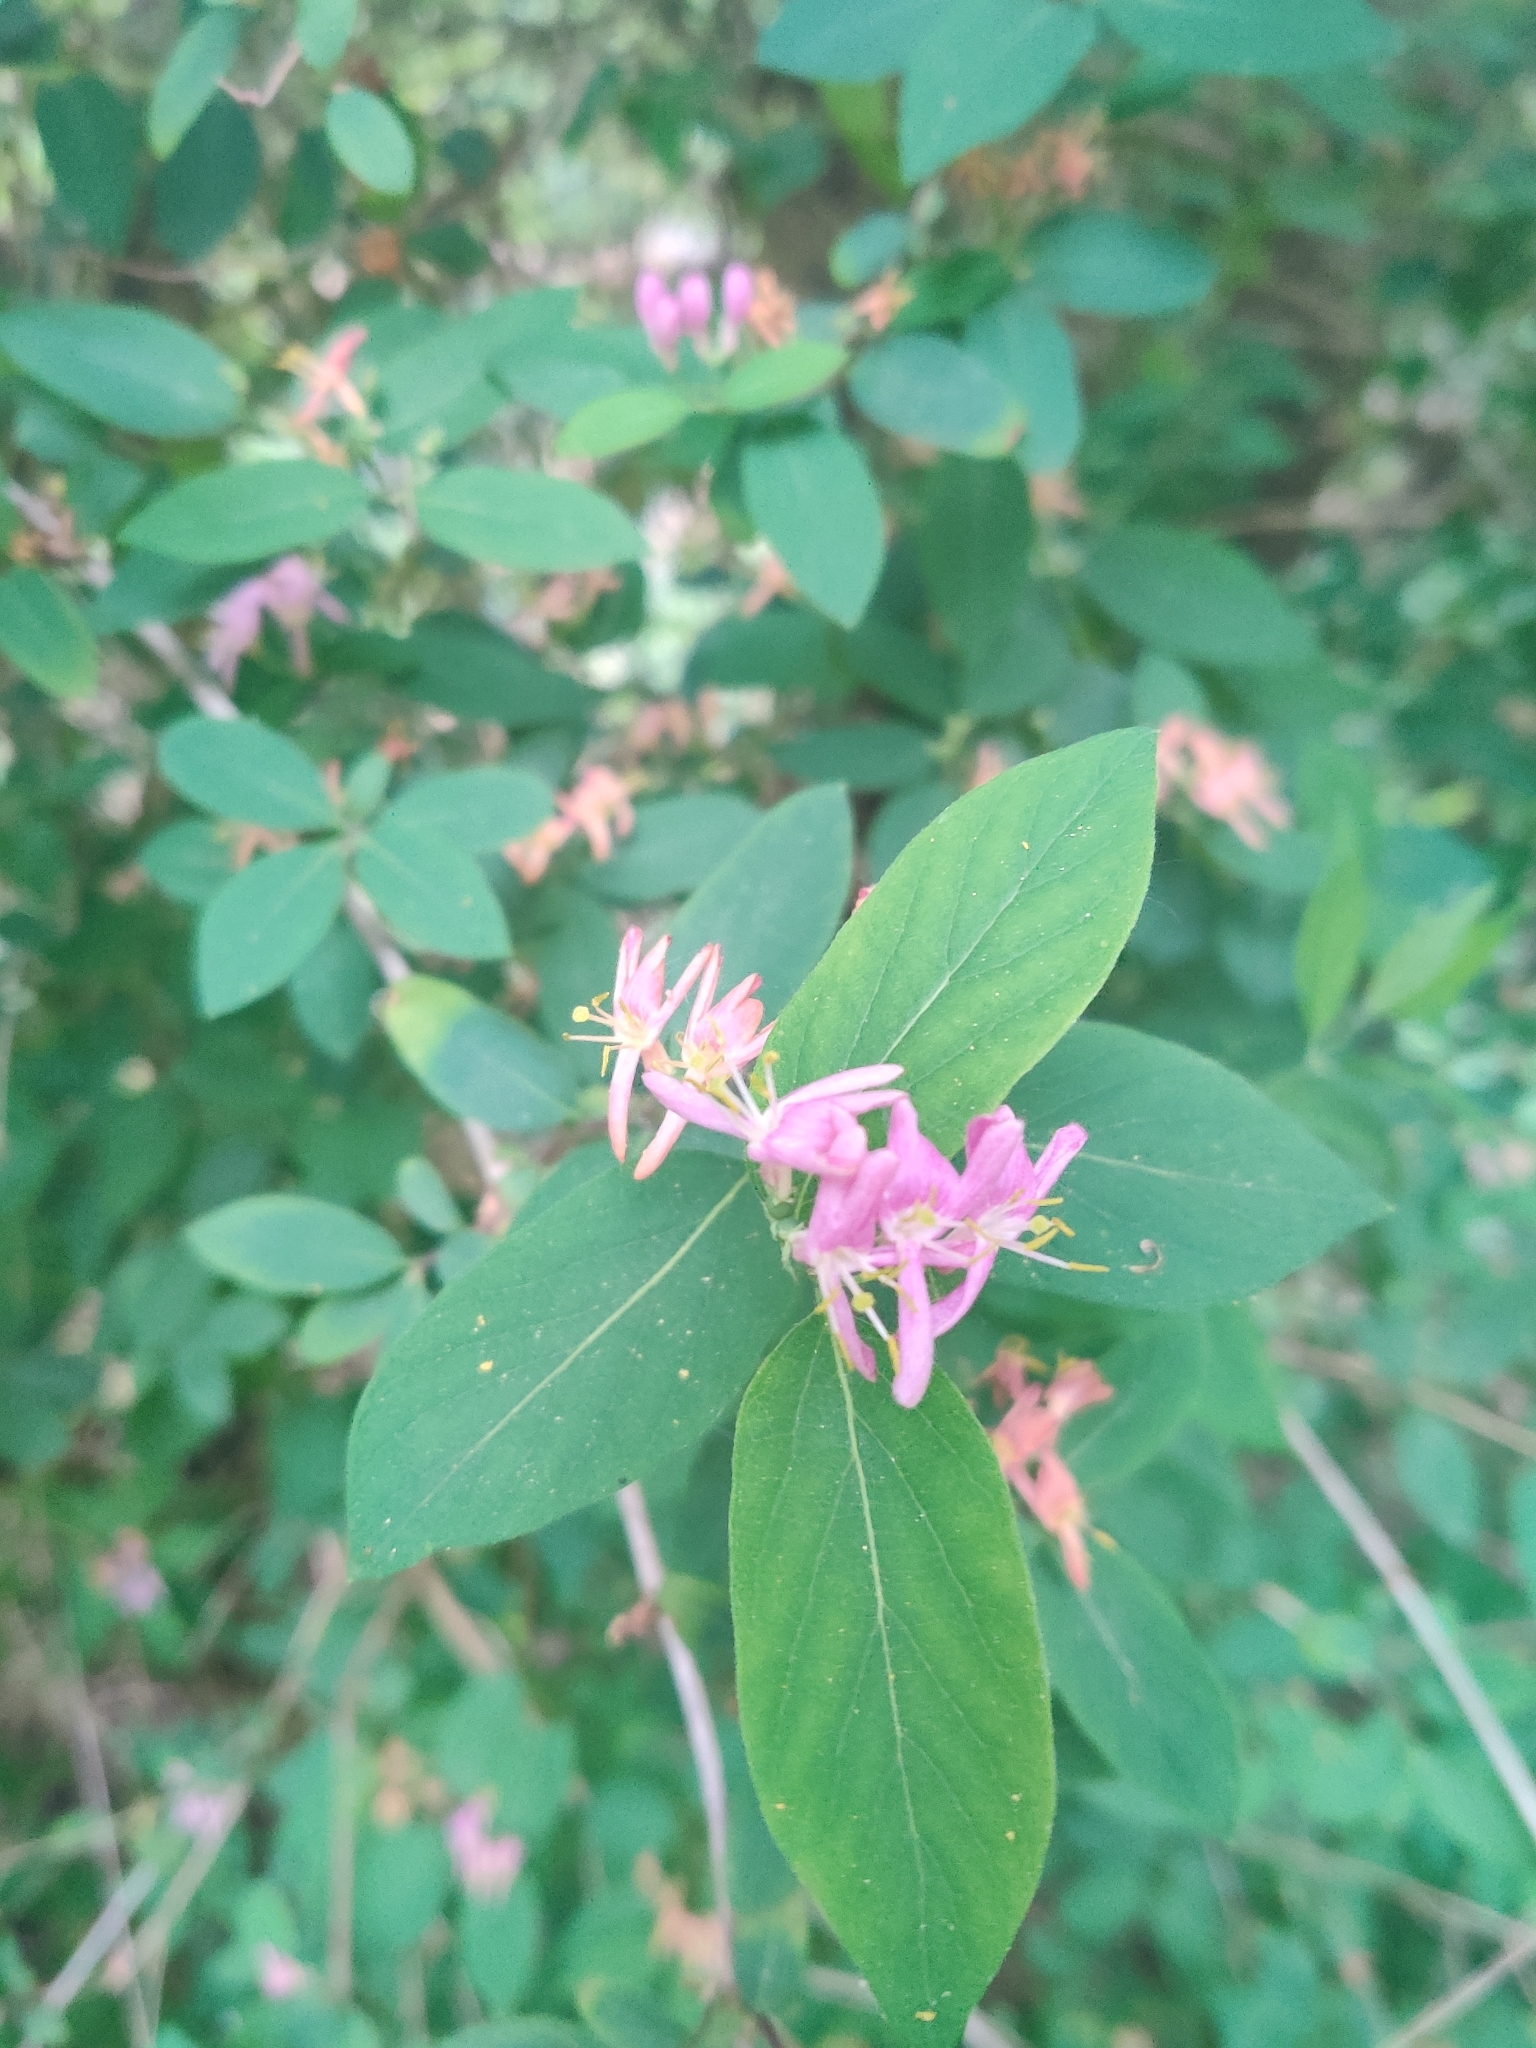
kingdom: Plantae
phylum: Tracheophyta
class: Magnoliopsida
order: Dipsacales
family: Caprifoliaceae
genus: Lonicera
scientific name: Lonicera tatarica
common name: Tatarian honeysuckle
